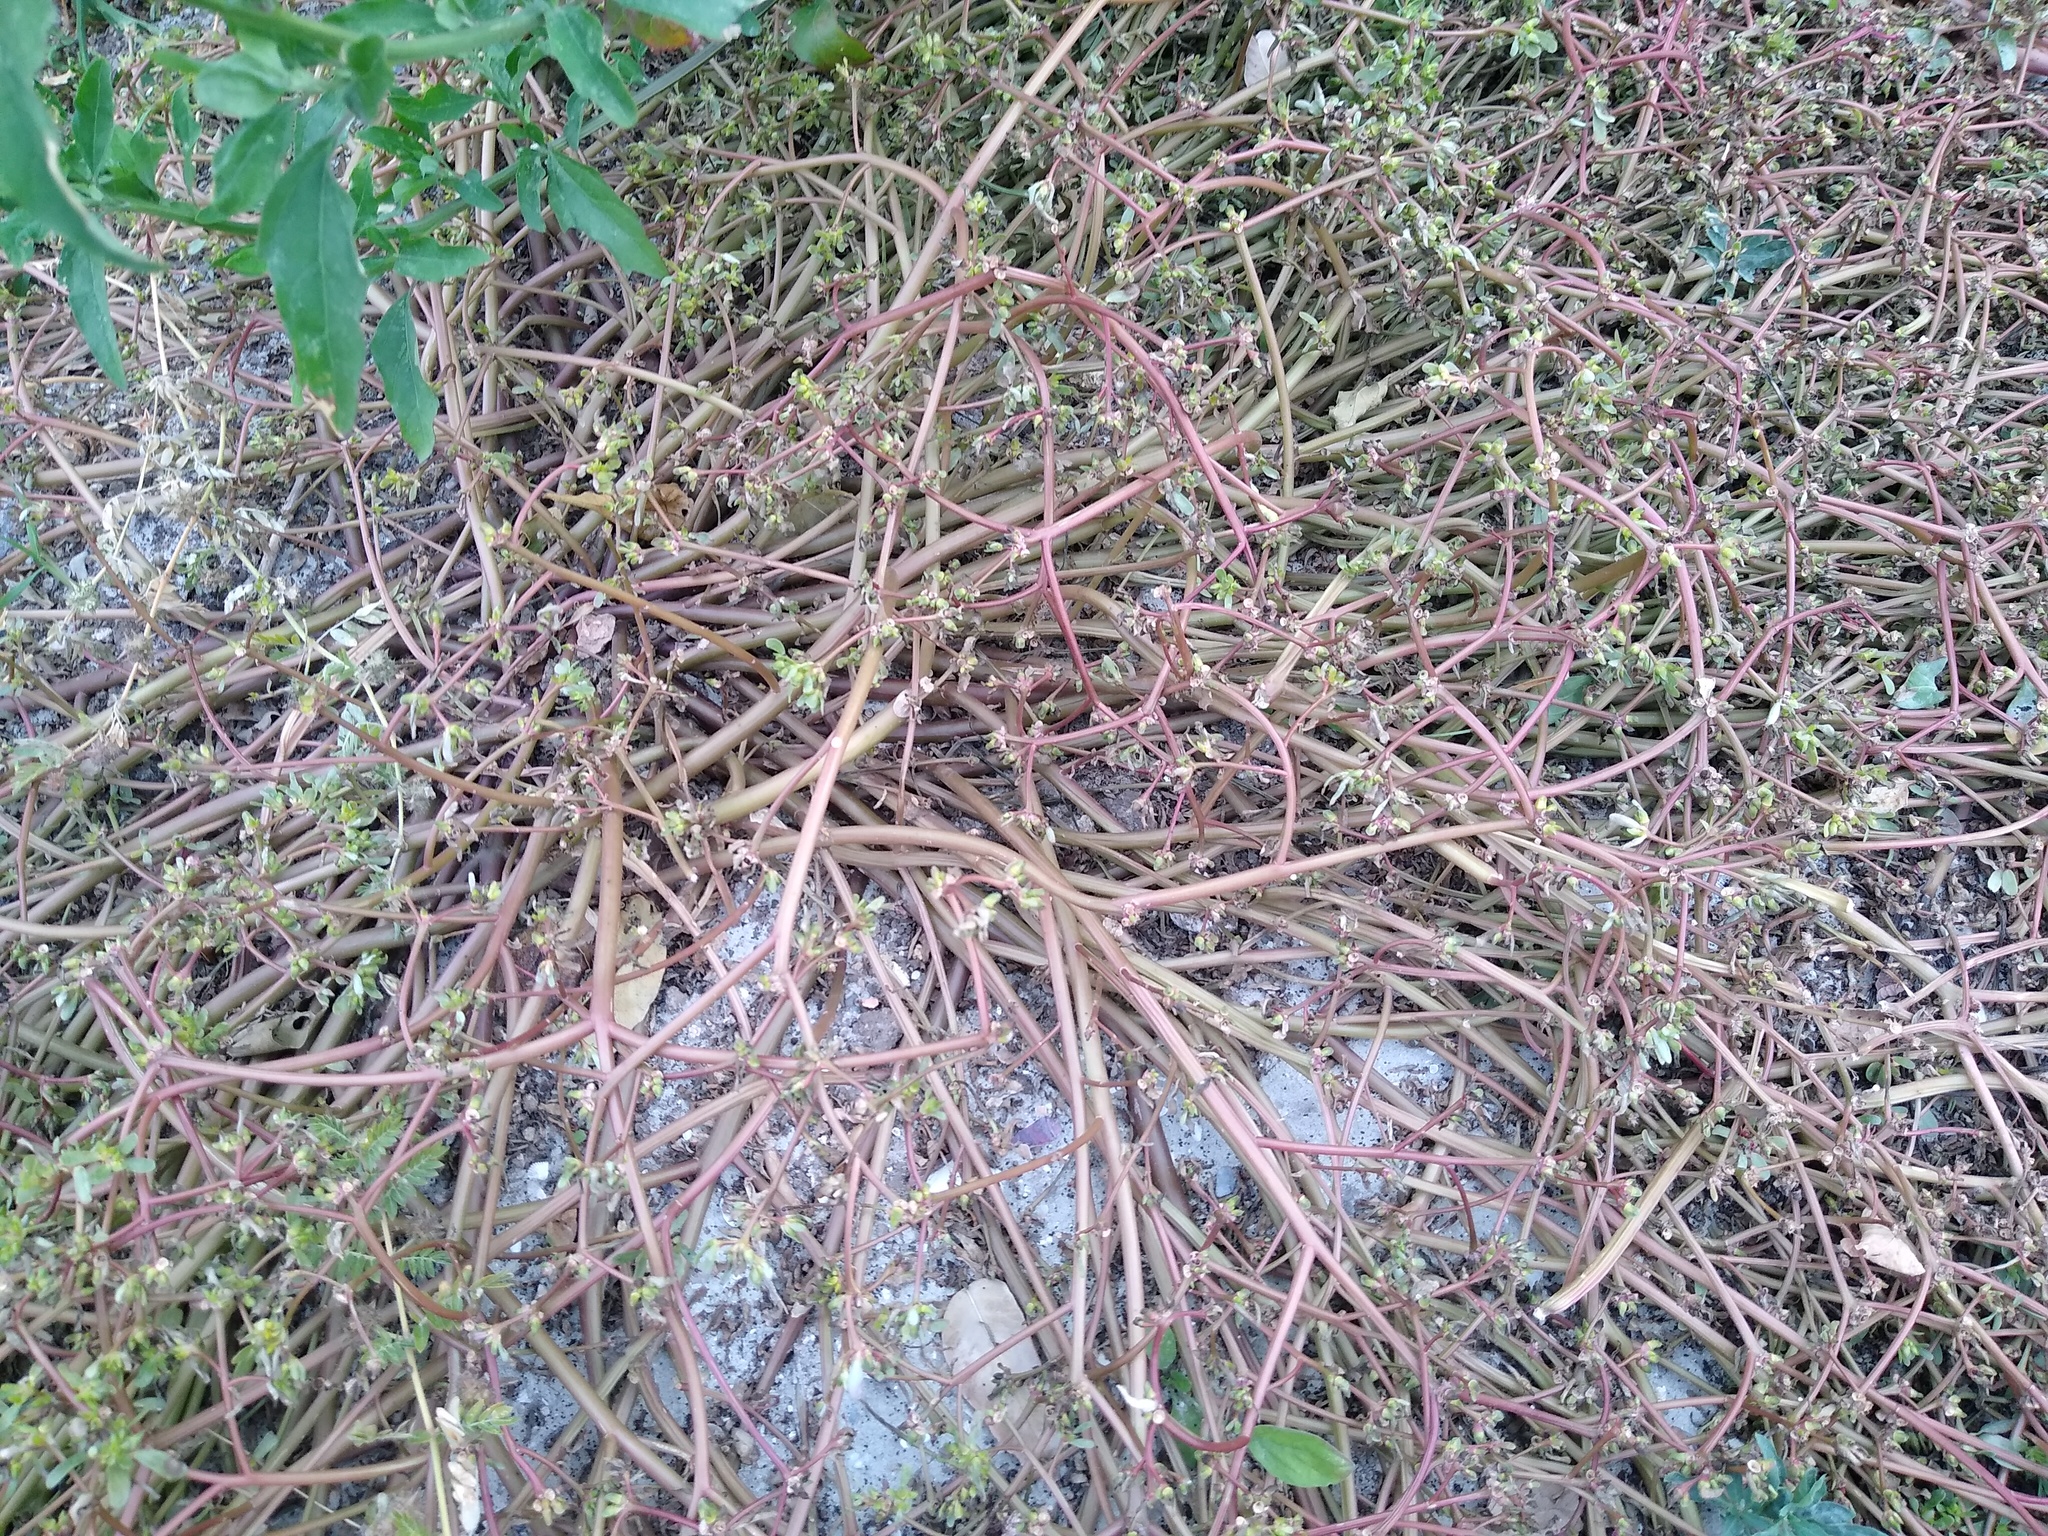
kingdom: Plantae
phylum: Tracheophyta
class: Magnoliopsida
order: Caryophyllales
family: Portulacaceae
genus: Portulaca
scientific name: Portulaca oleracea
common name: Common purslane
